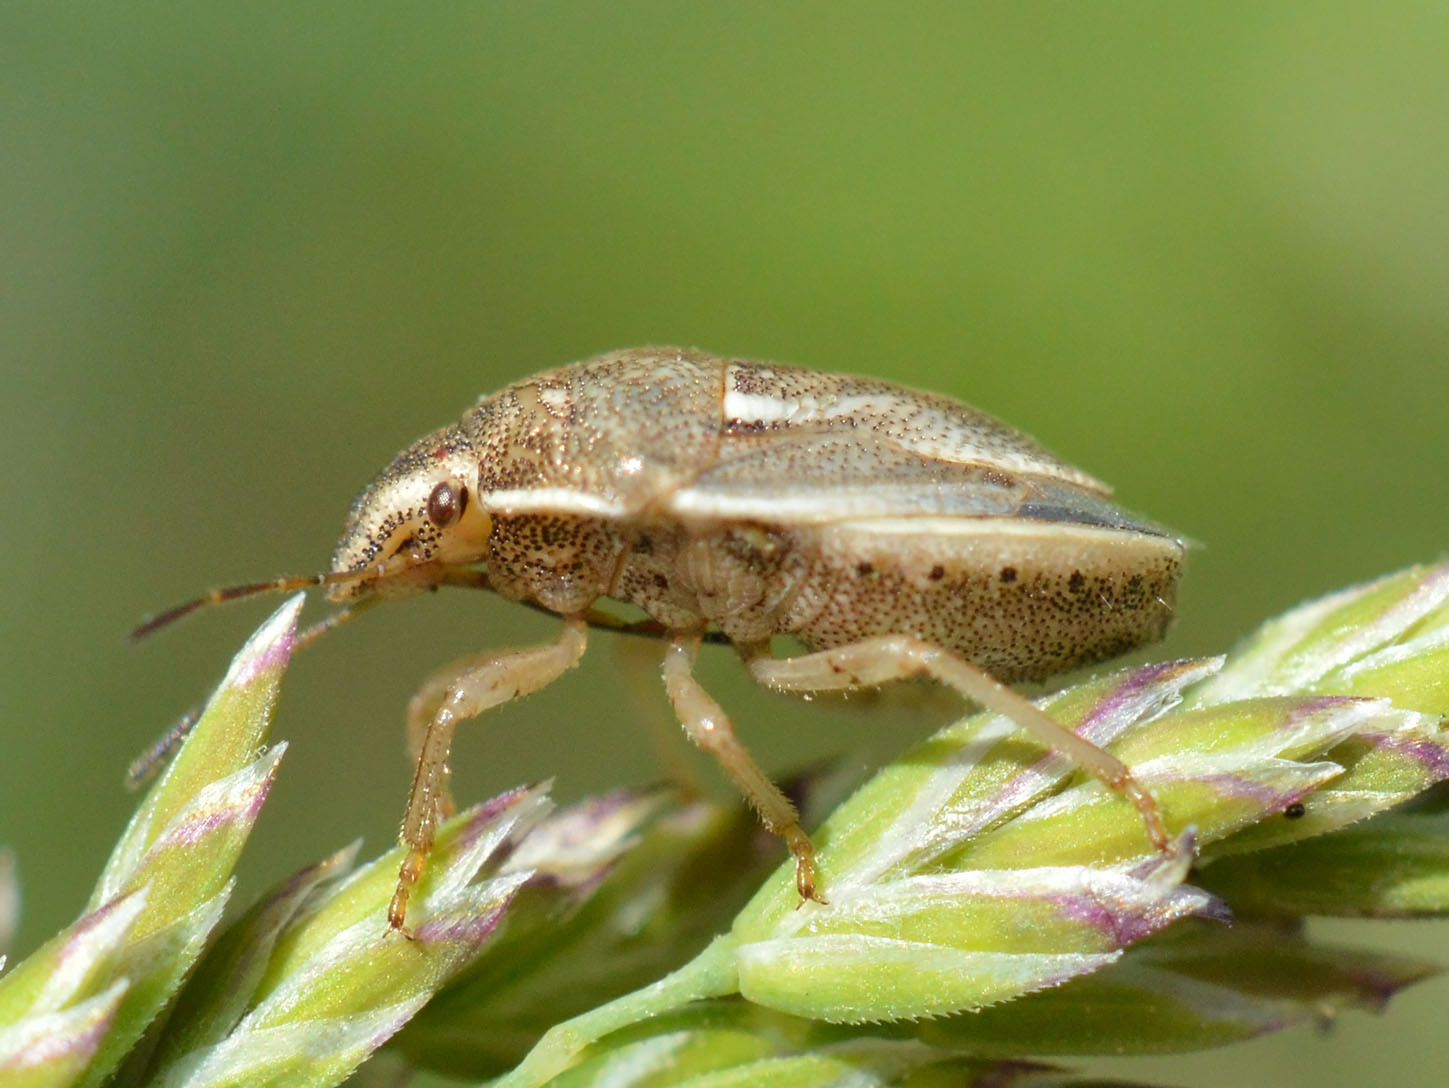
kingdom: Animalia
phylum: Arthropoda
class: Insecta
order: Hemiptera
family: Pentatomidae
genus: Neottiglossa
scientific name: Neottiglossa leporina
